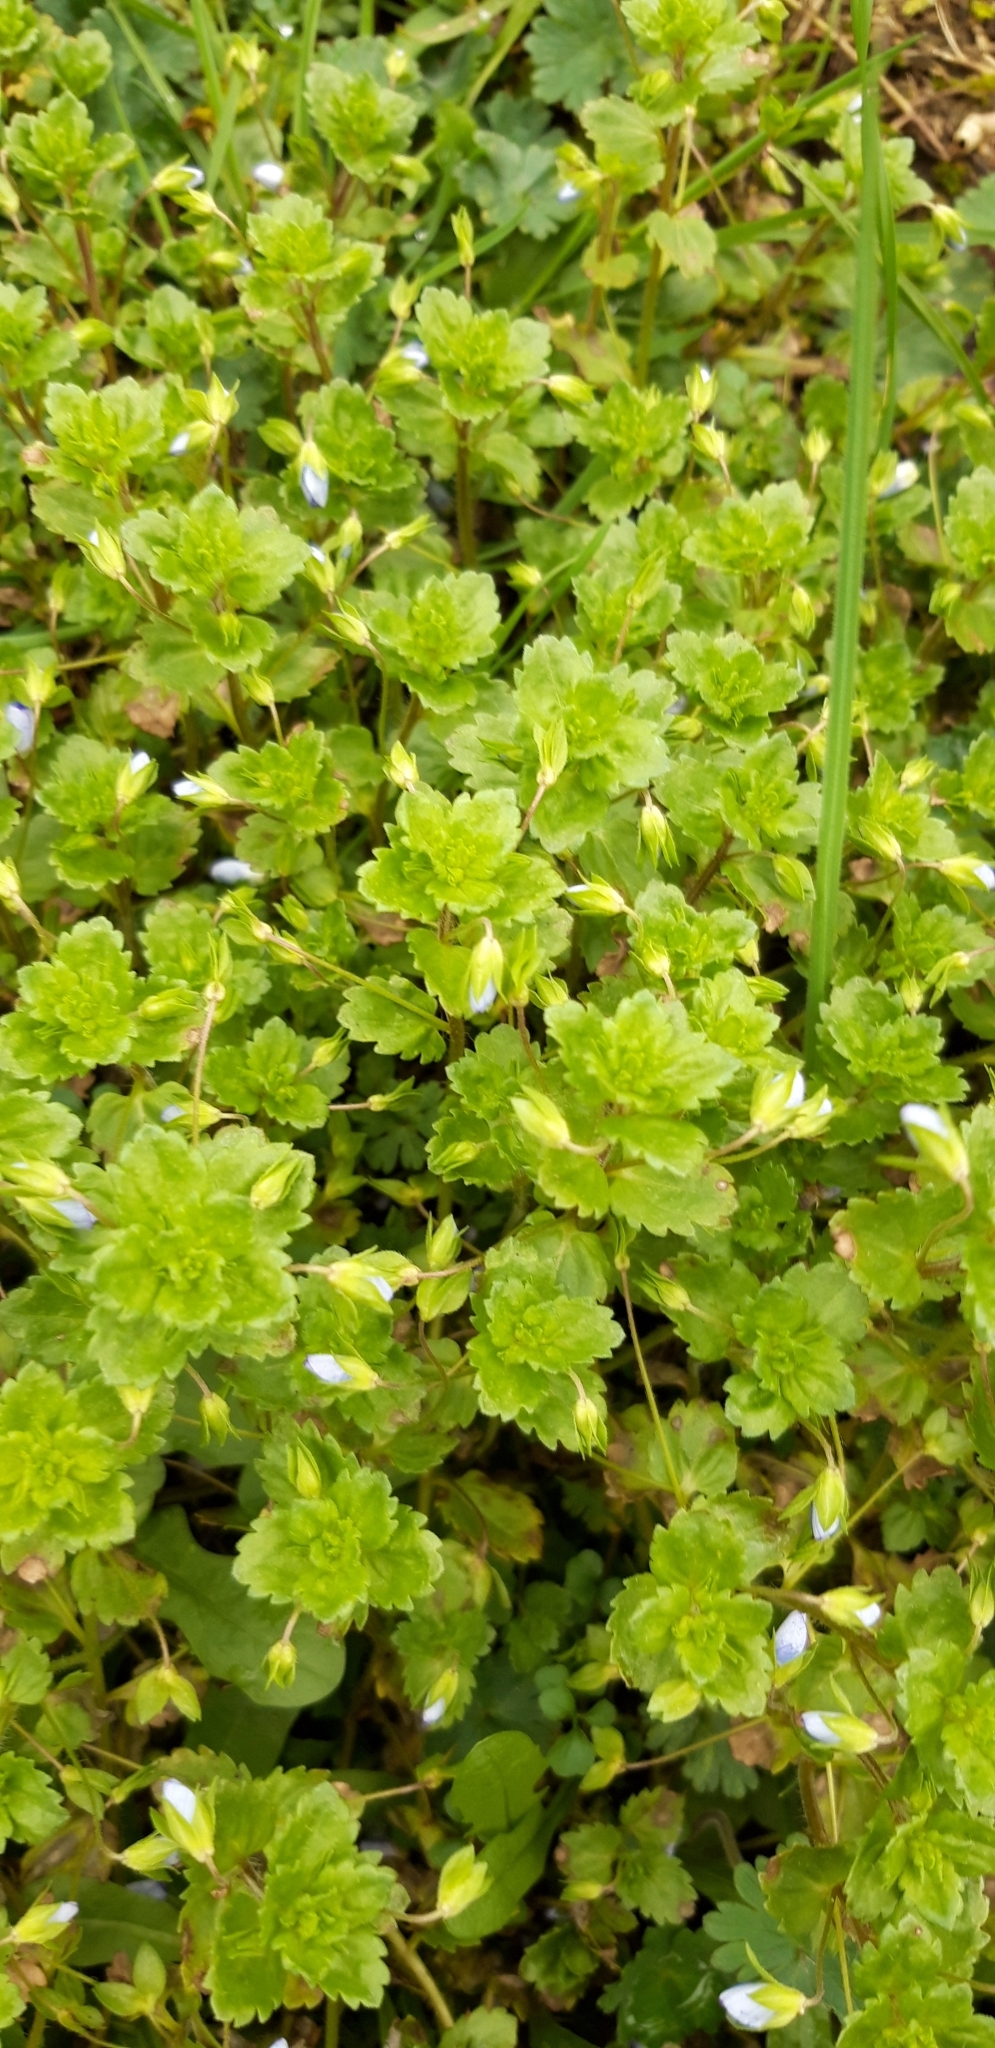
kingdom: Plantae
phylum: Tracheophyta
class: Magnoliopsida
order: Lamiales
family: Plantaginaceae
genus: Veronica
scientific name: Veronica persica
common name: Common field-speedwell
